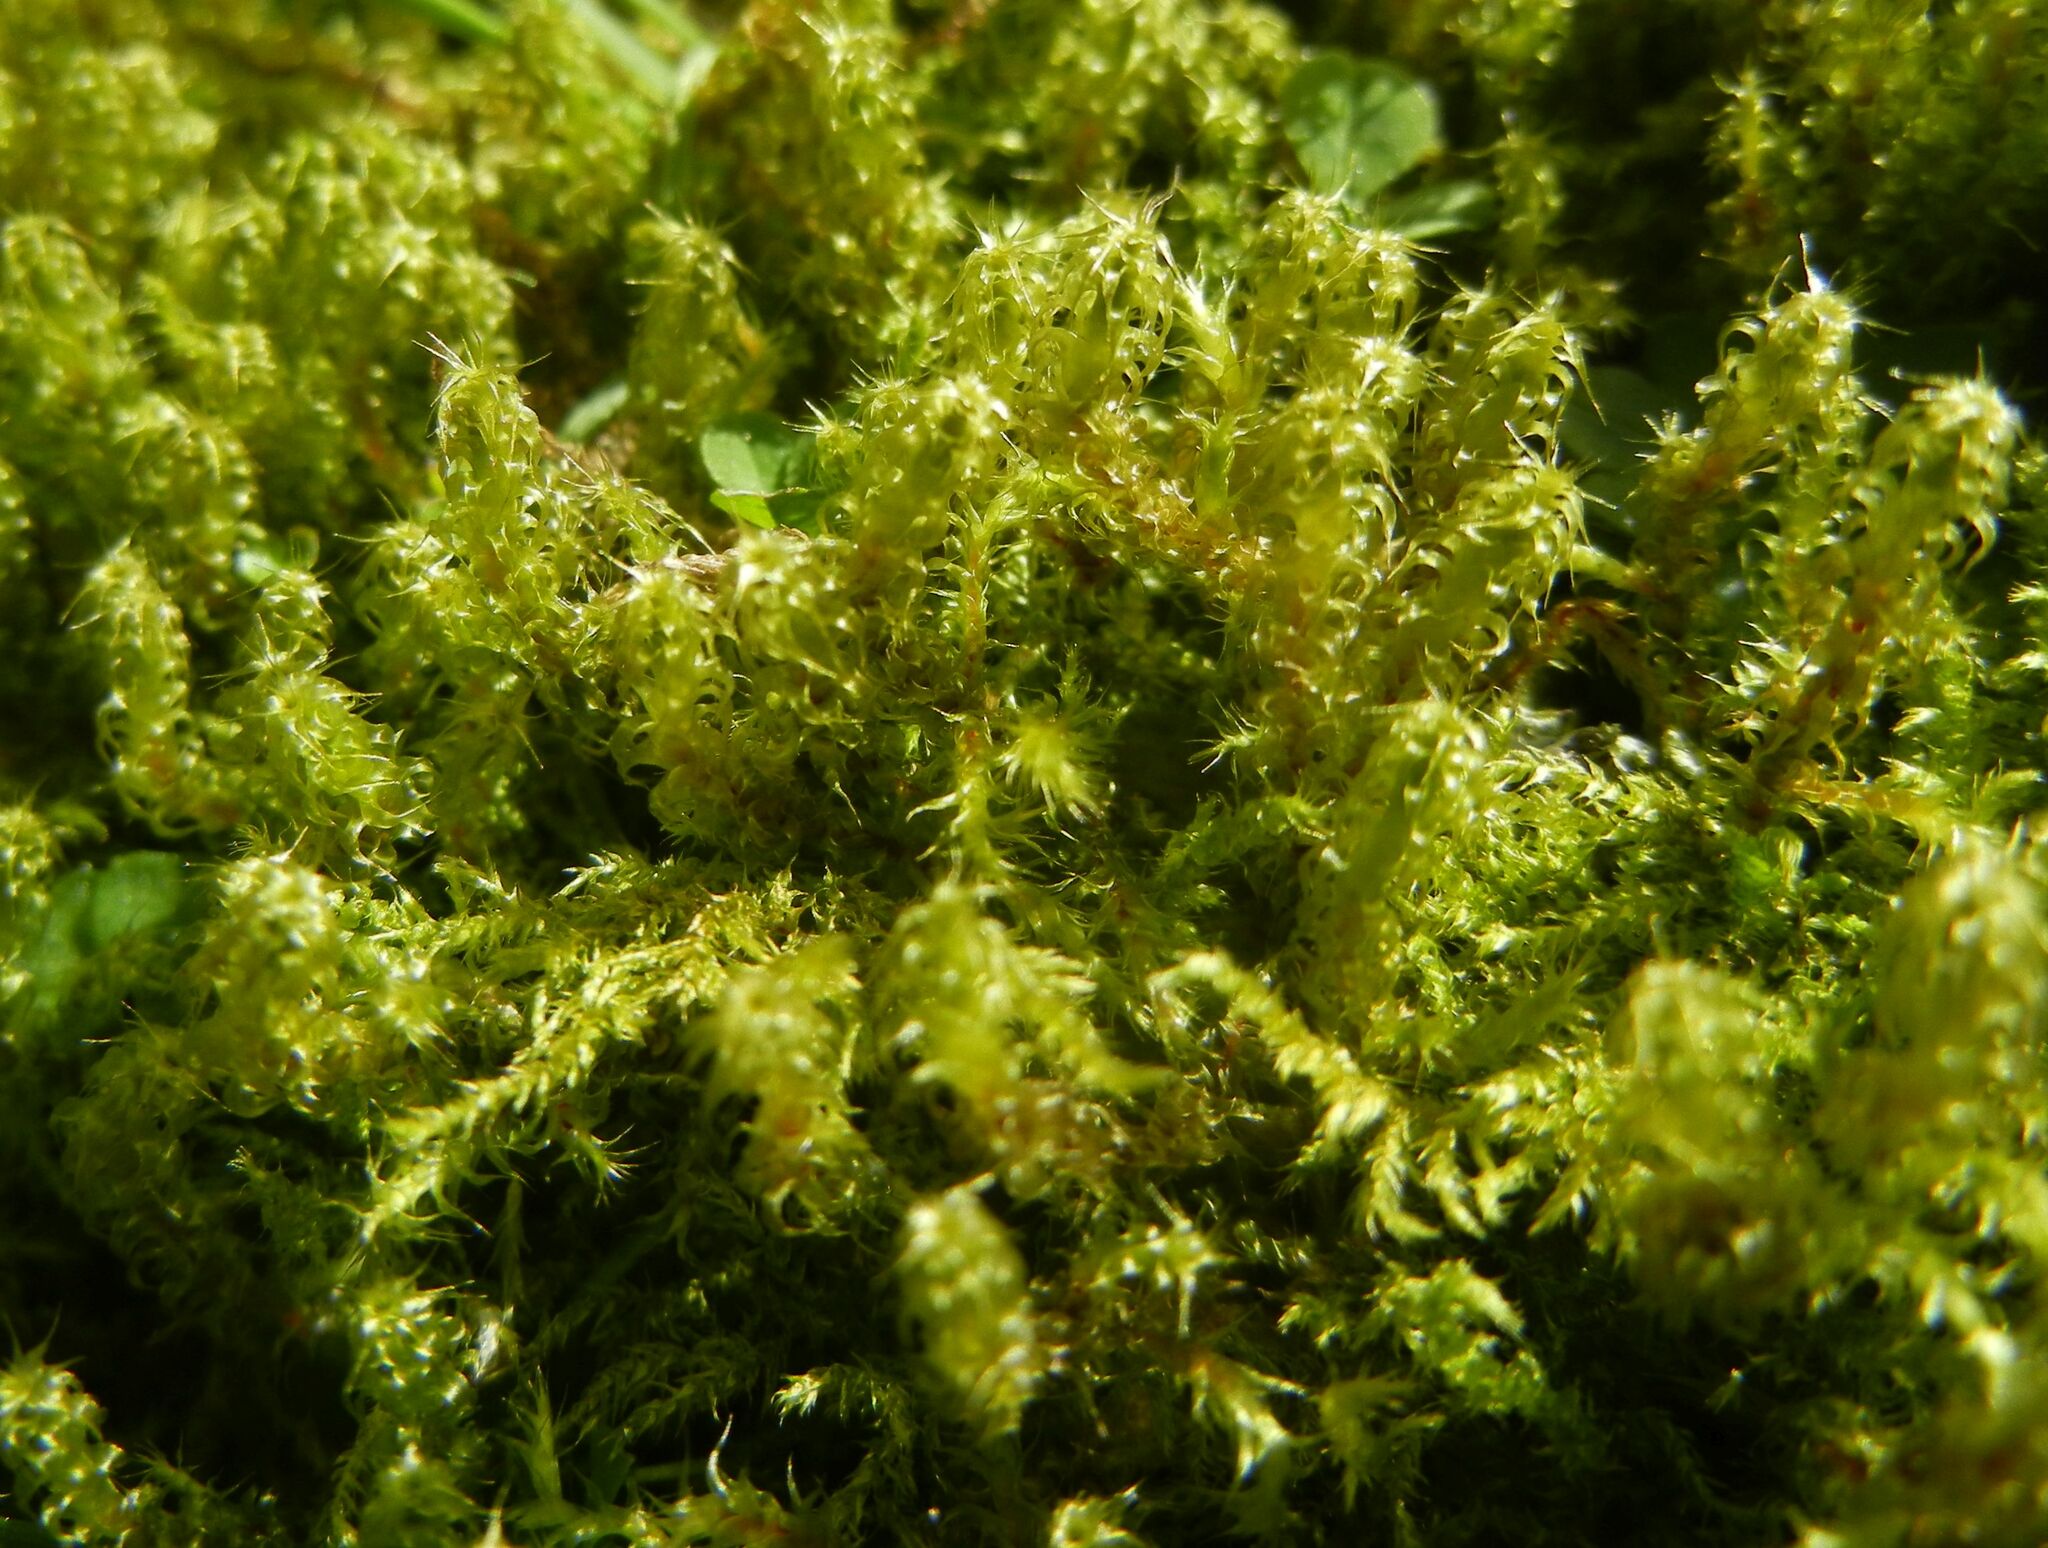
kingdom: Plantae
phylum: Bryophyta
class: Bryopsida
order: Hypnales
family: Hylocomiaceae
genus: Rhytidiadelphus
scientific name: Rhytidiadelphus squarrosus
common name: Springy turf-moss
